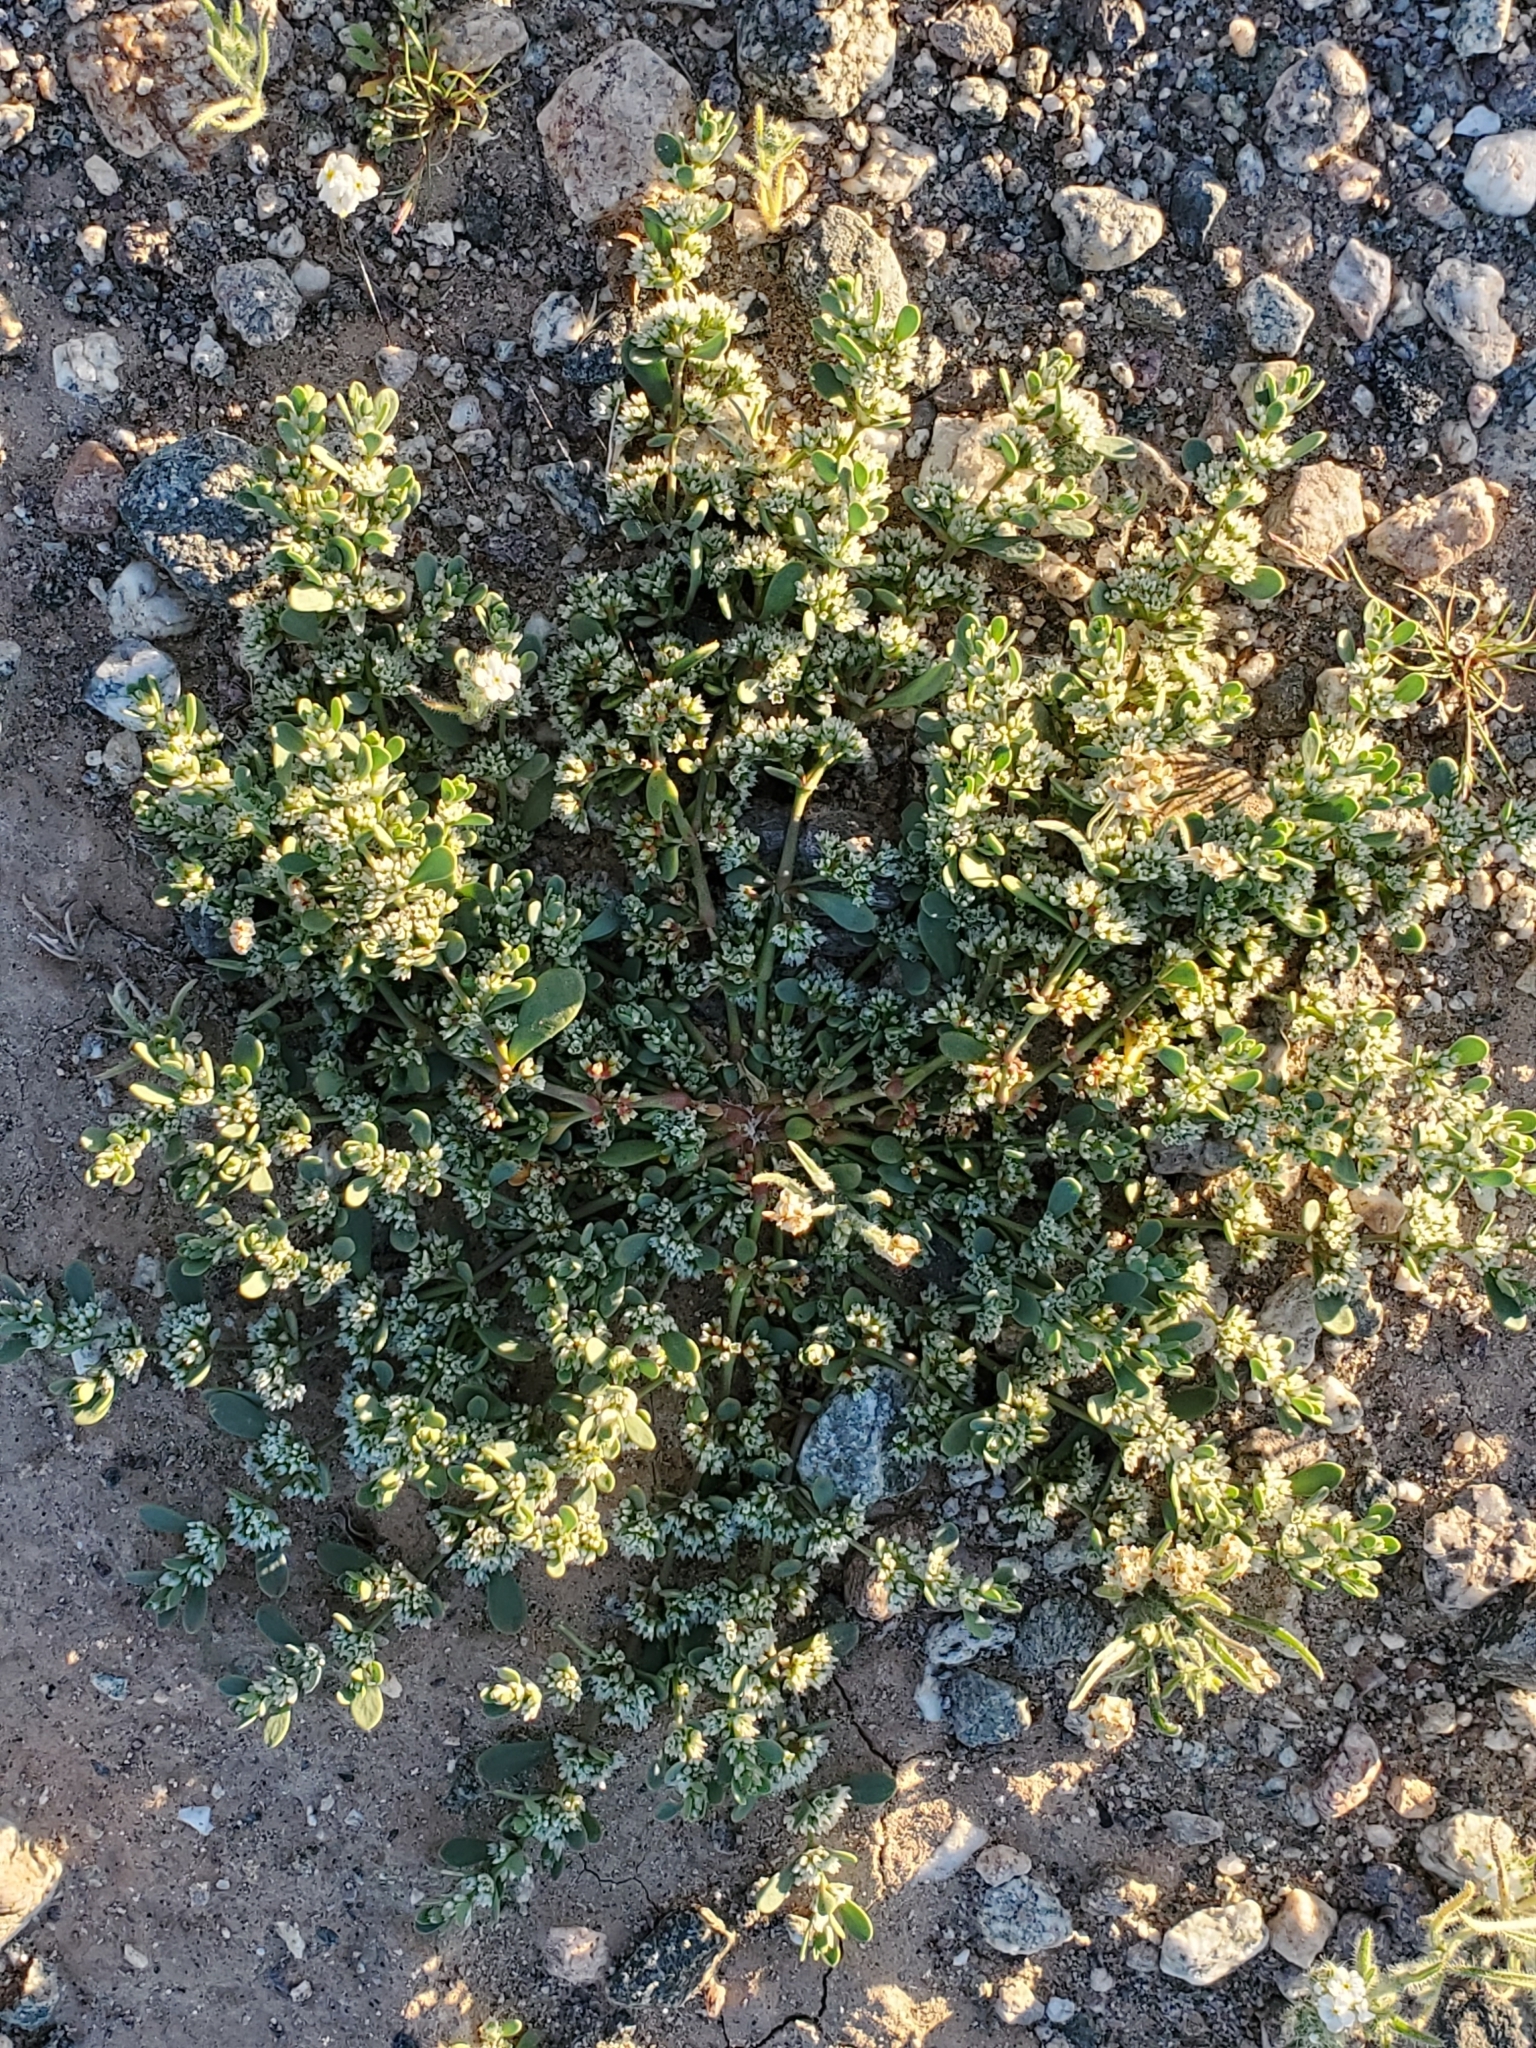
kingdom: Plantae
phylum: Tracheophyta
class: Magnoliopsida
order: Caryophyllales
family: Caryophyllaceae
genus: Achyronychia
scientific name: Achyronychia cooperi
